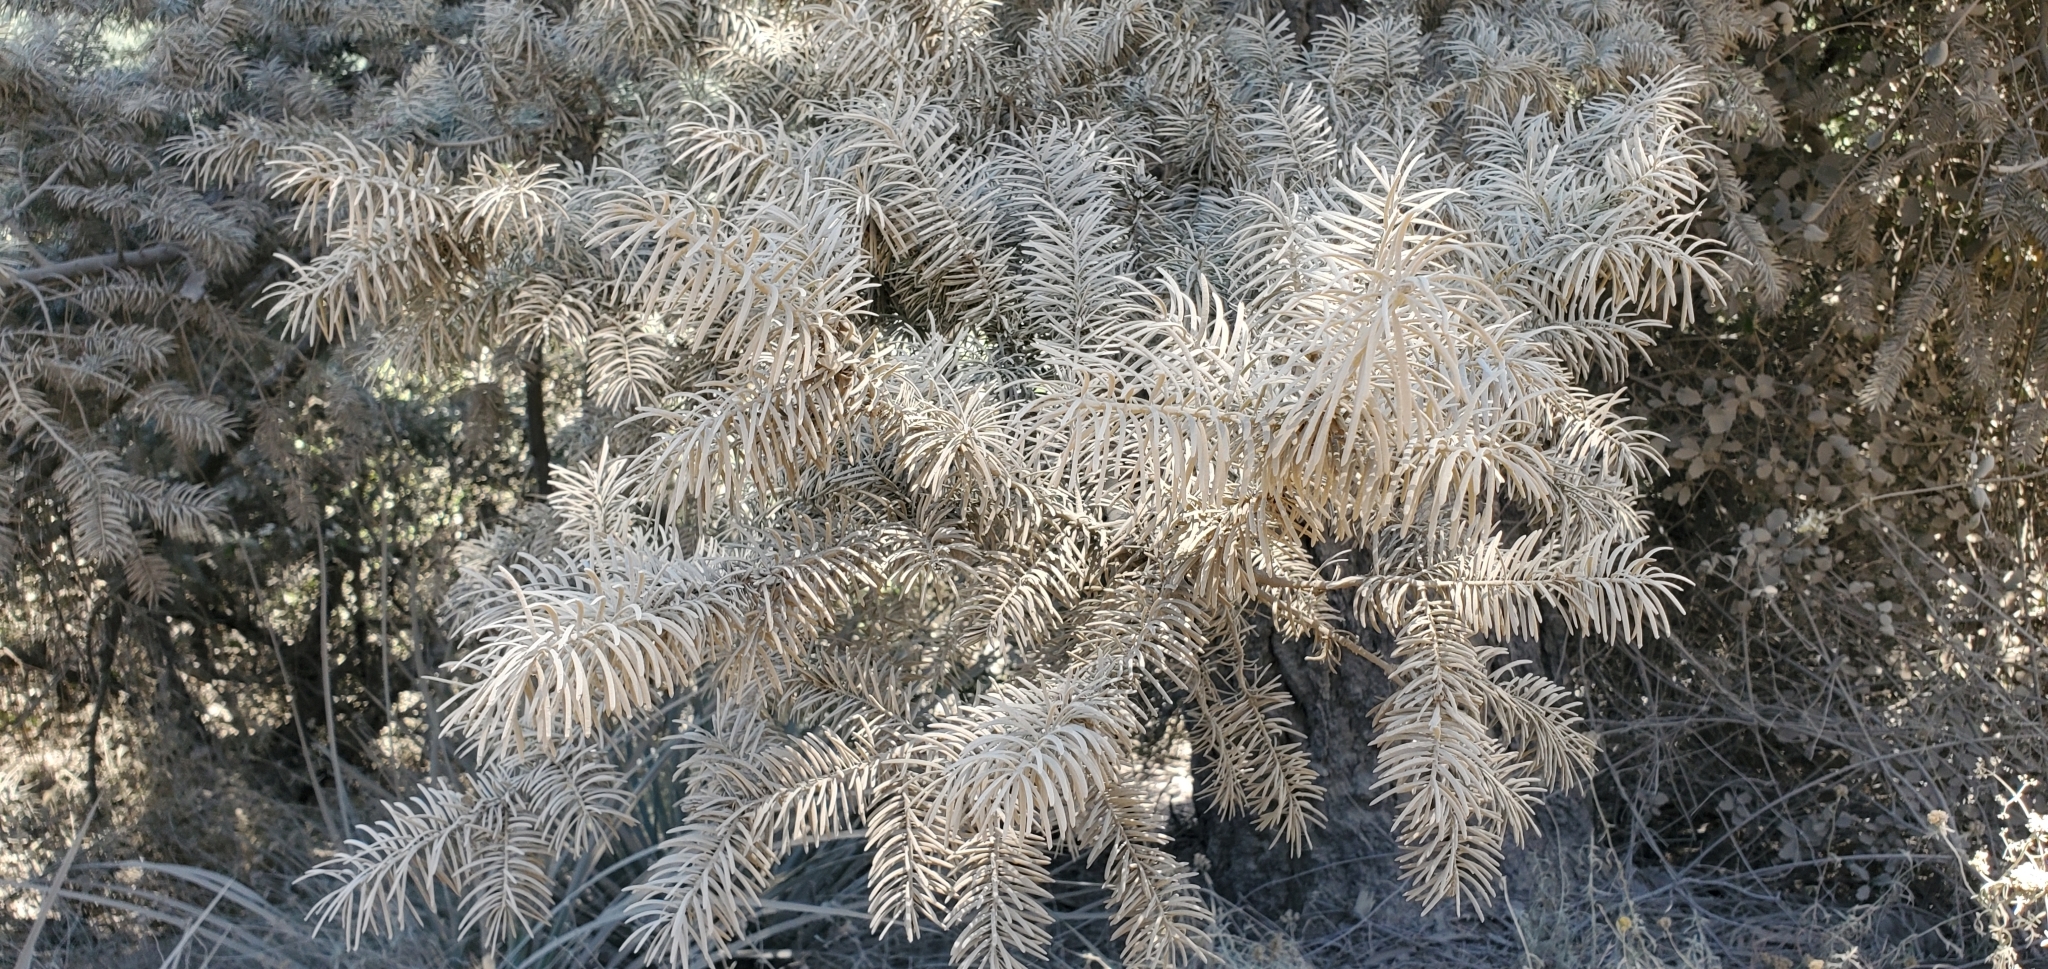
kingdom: Plantae
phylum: Tracheophyta
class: Pinopsida
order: Pinales
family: Pinaceae
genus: Pseudotsuga
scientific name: Pseudotsuga macrocarpa
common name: Big-cone douglas-fir
